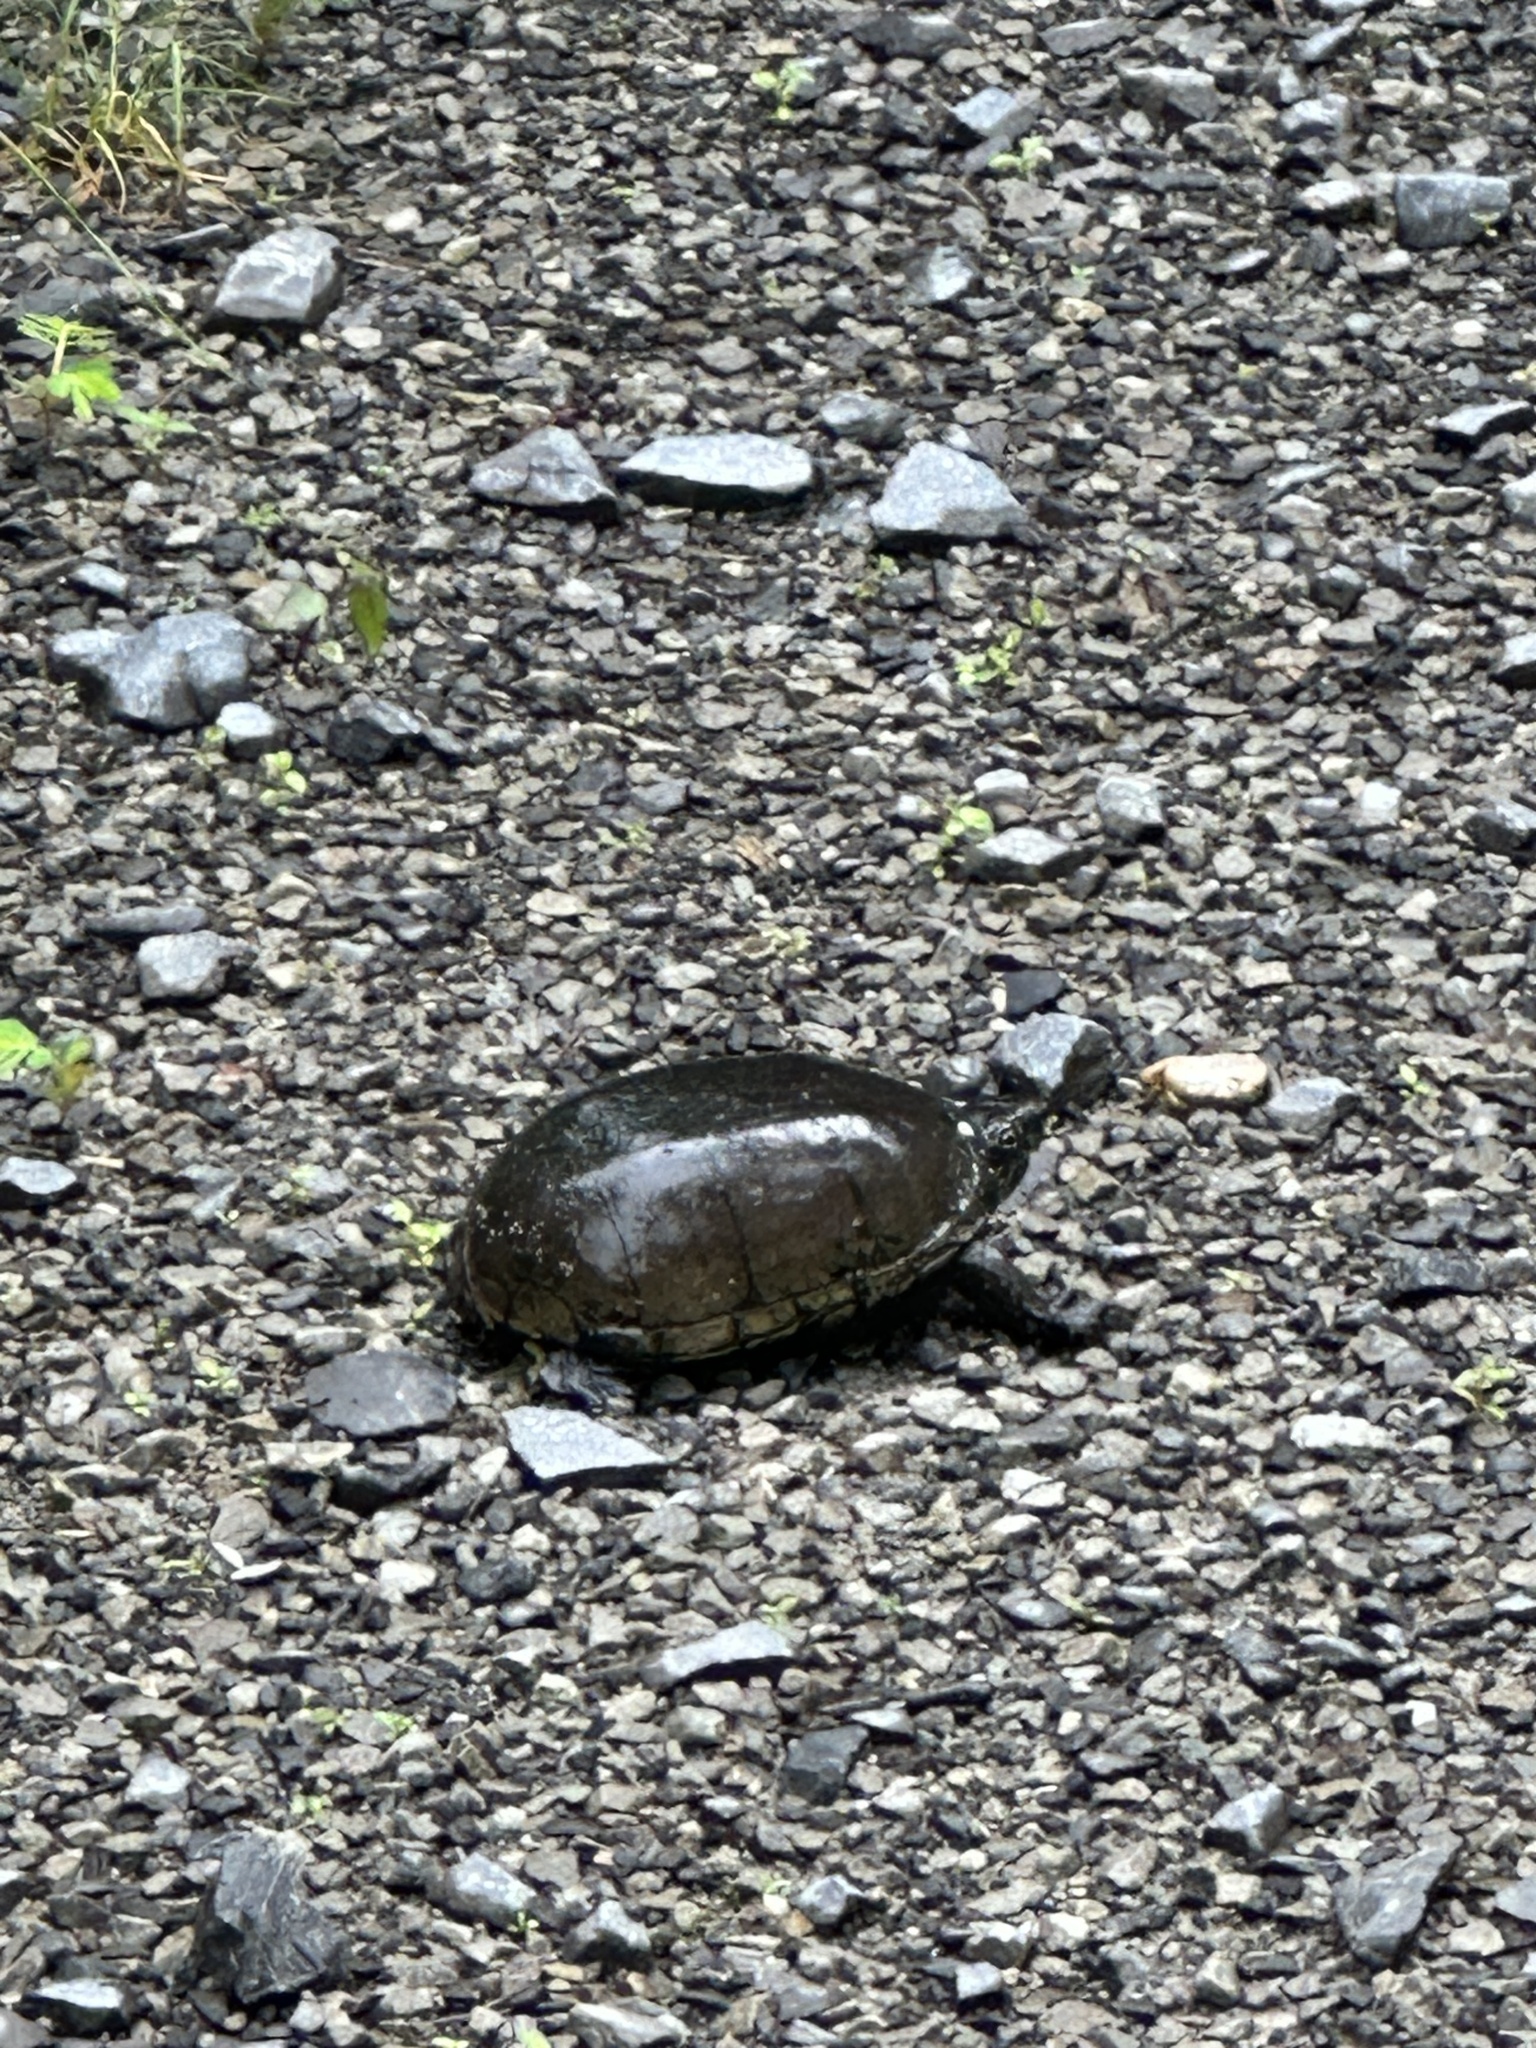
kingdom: Animalia
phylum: Chordata
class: Testudines
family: Kinosternidae
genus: Kinosternon
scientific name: Kinosternon subrubrum
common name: Eastern mud turtle
